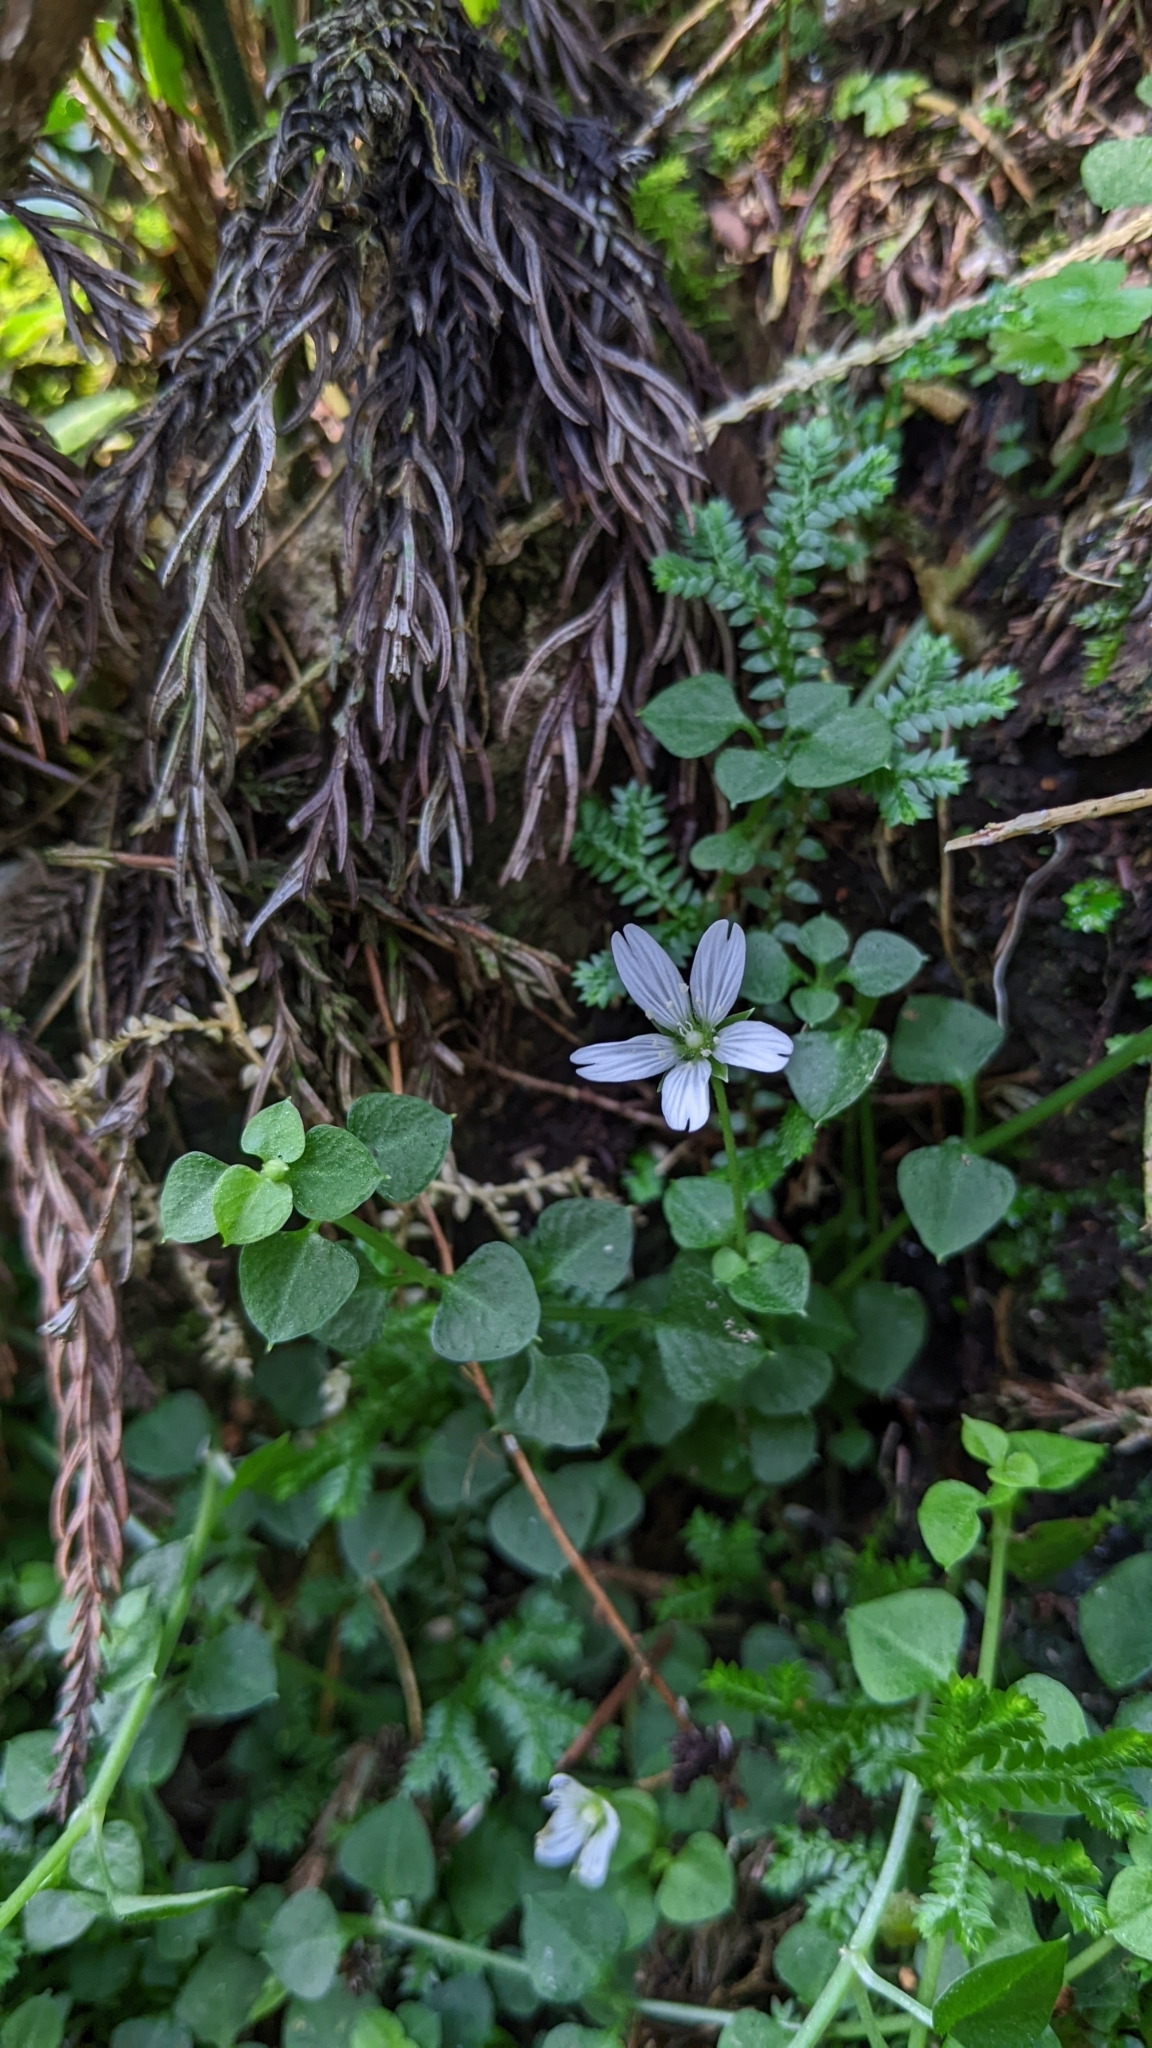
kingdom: Plantae
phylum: Tracheophyta
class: Magnoliopsida
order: Caryophyllales
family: Caryophyllaceae
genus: Nubelaria
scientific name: Nubelaria arisanensis
